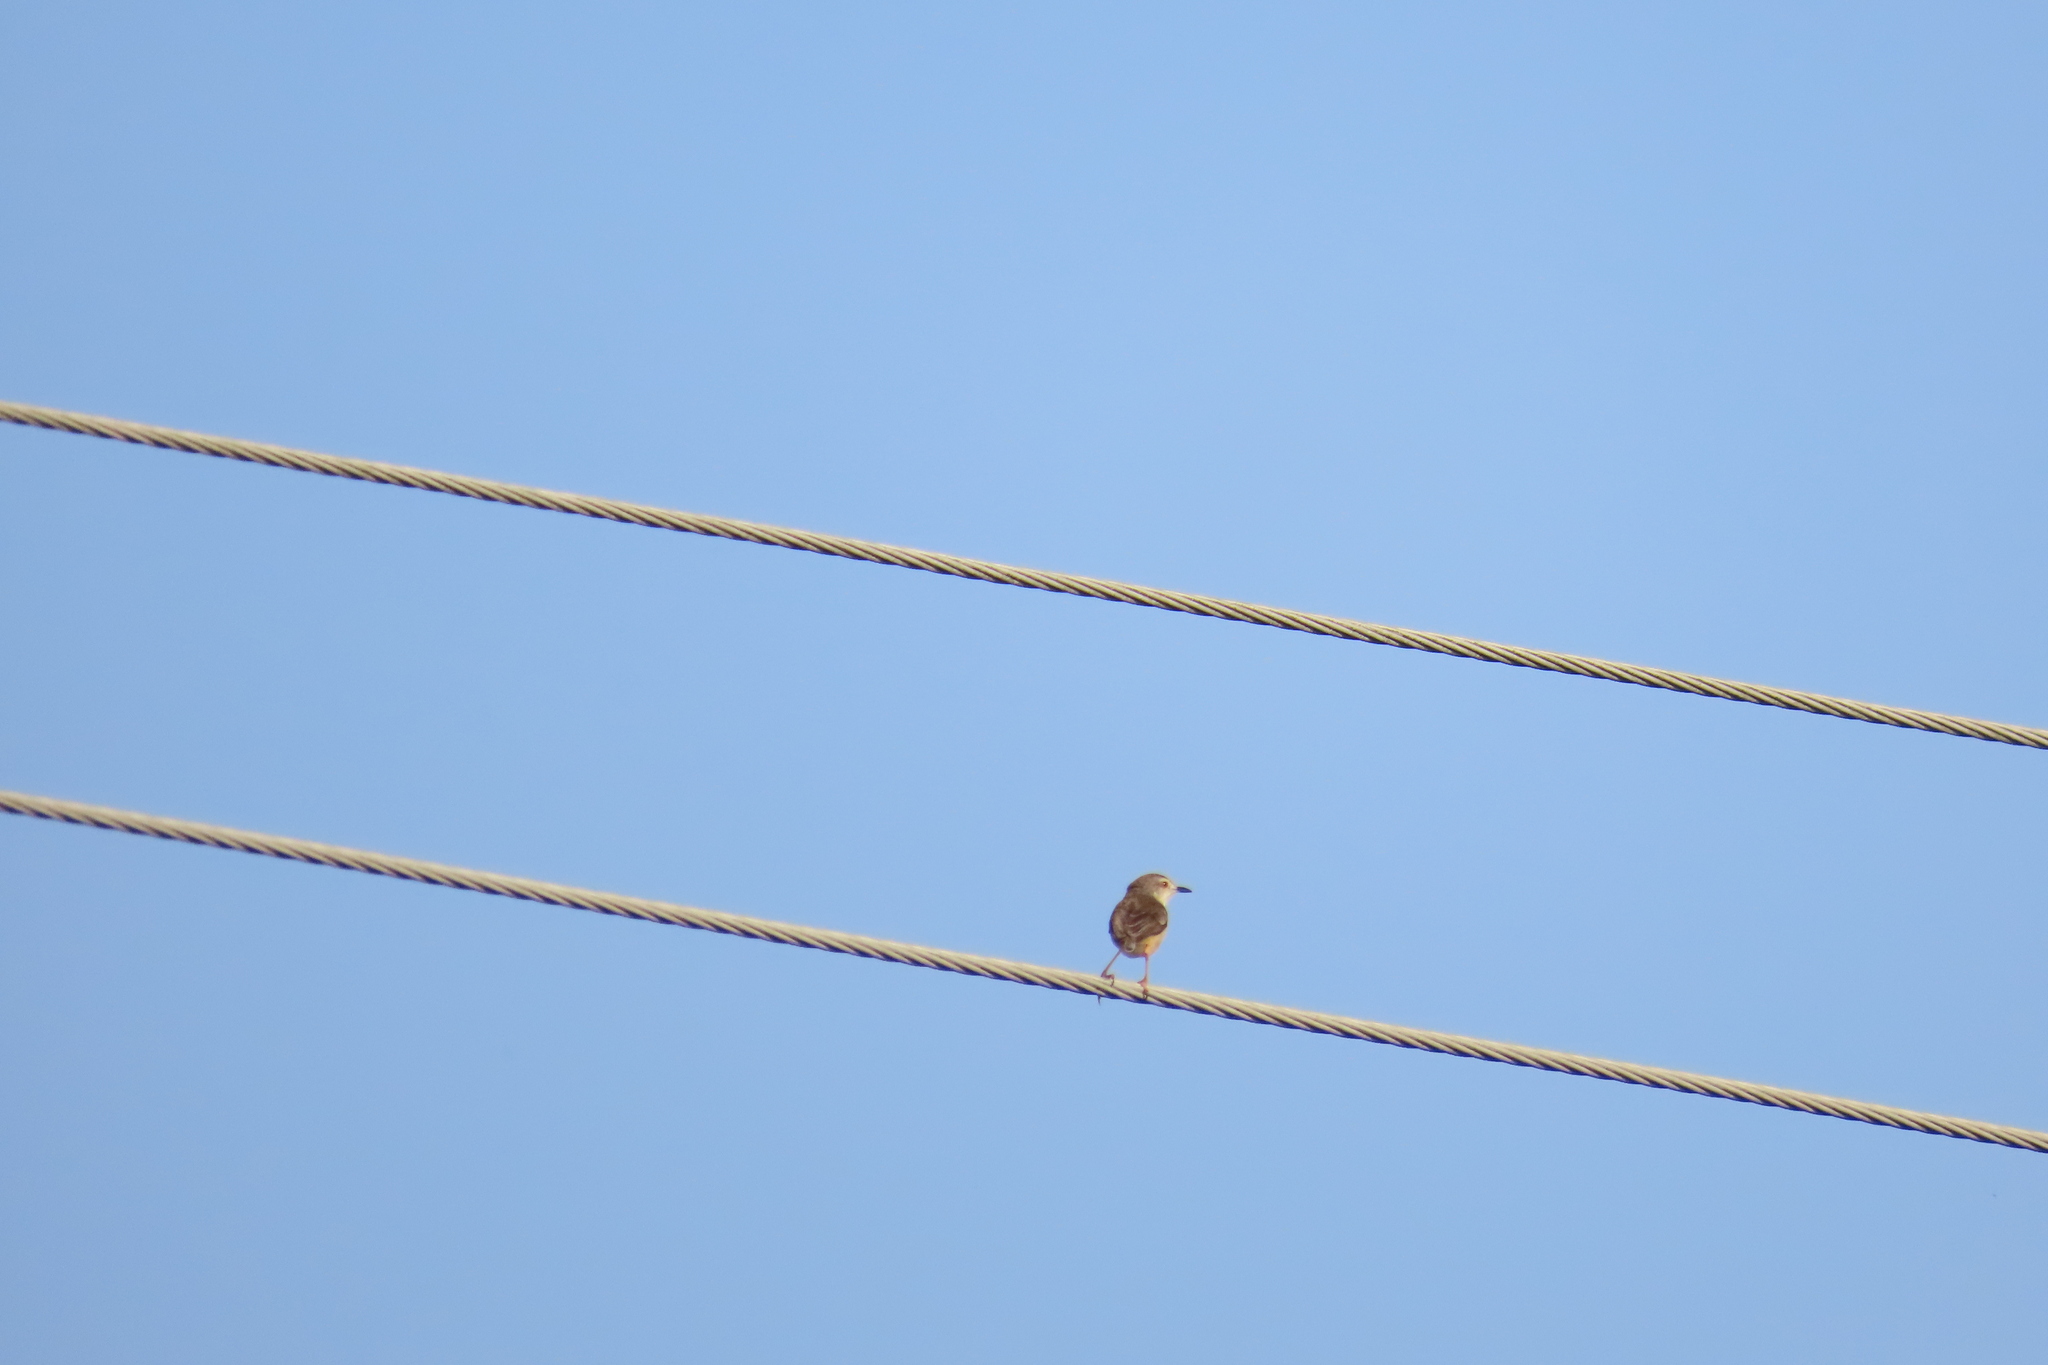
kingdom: Animalia
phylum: Chordata
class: Aves
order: Passeriformes
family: Cisticolidae
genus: Prinia
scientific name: Prinia inornata
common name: Plain prinia
